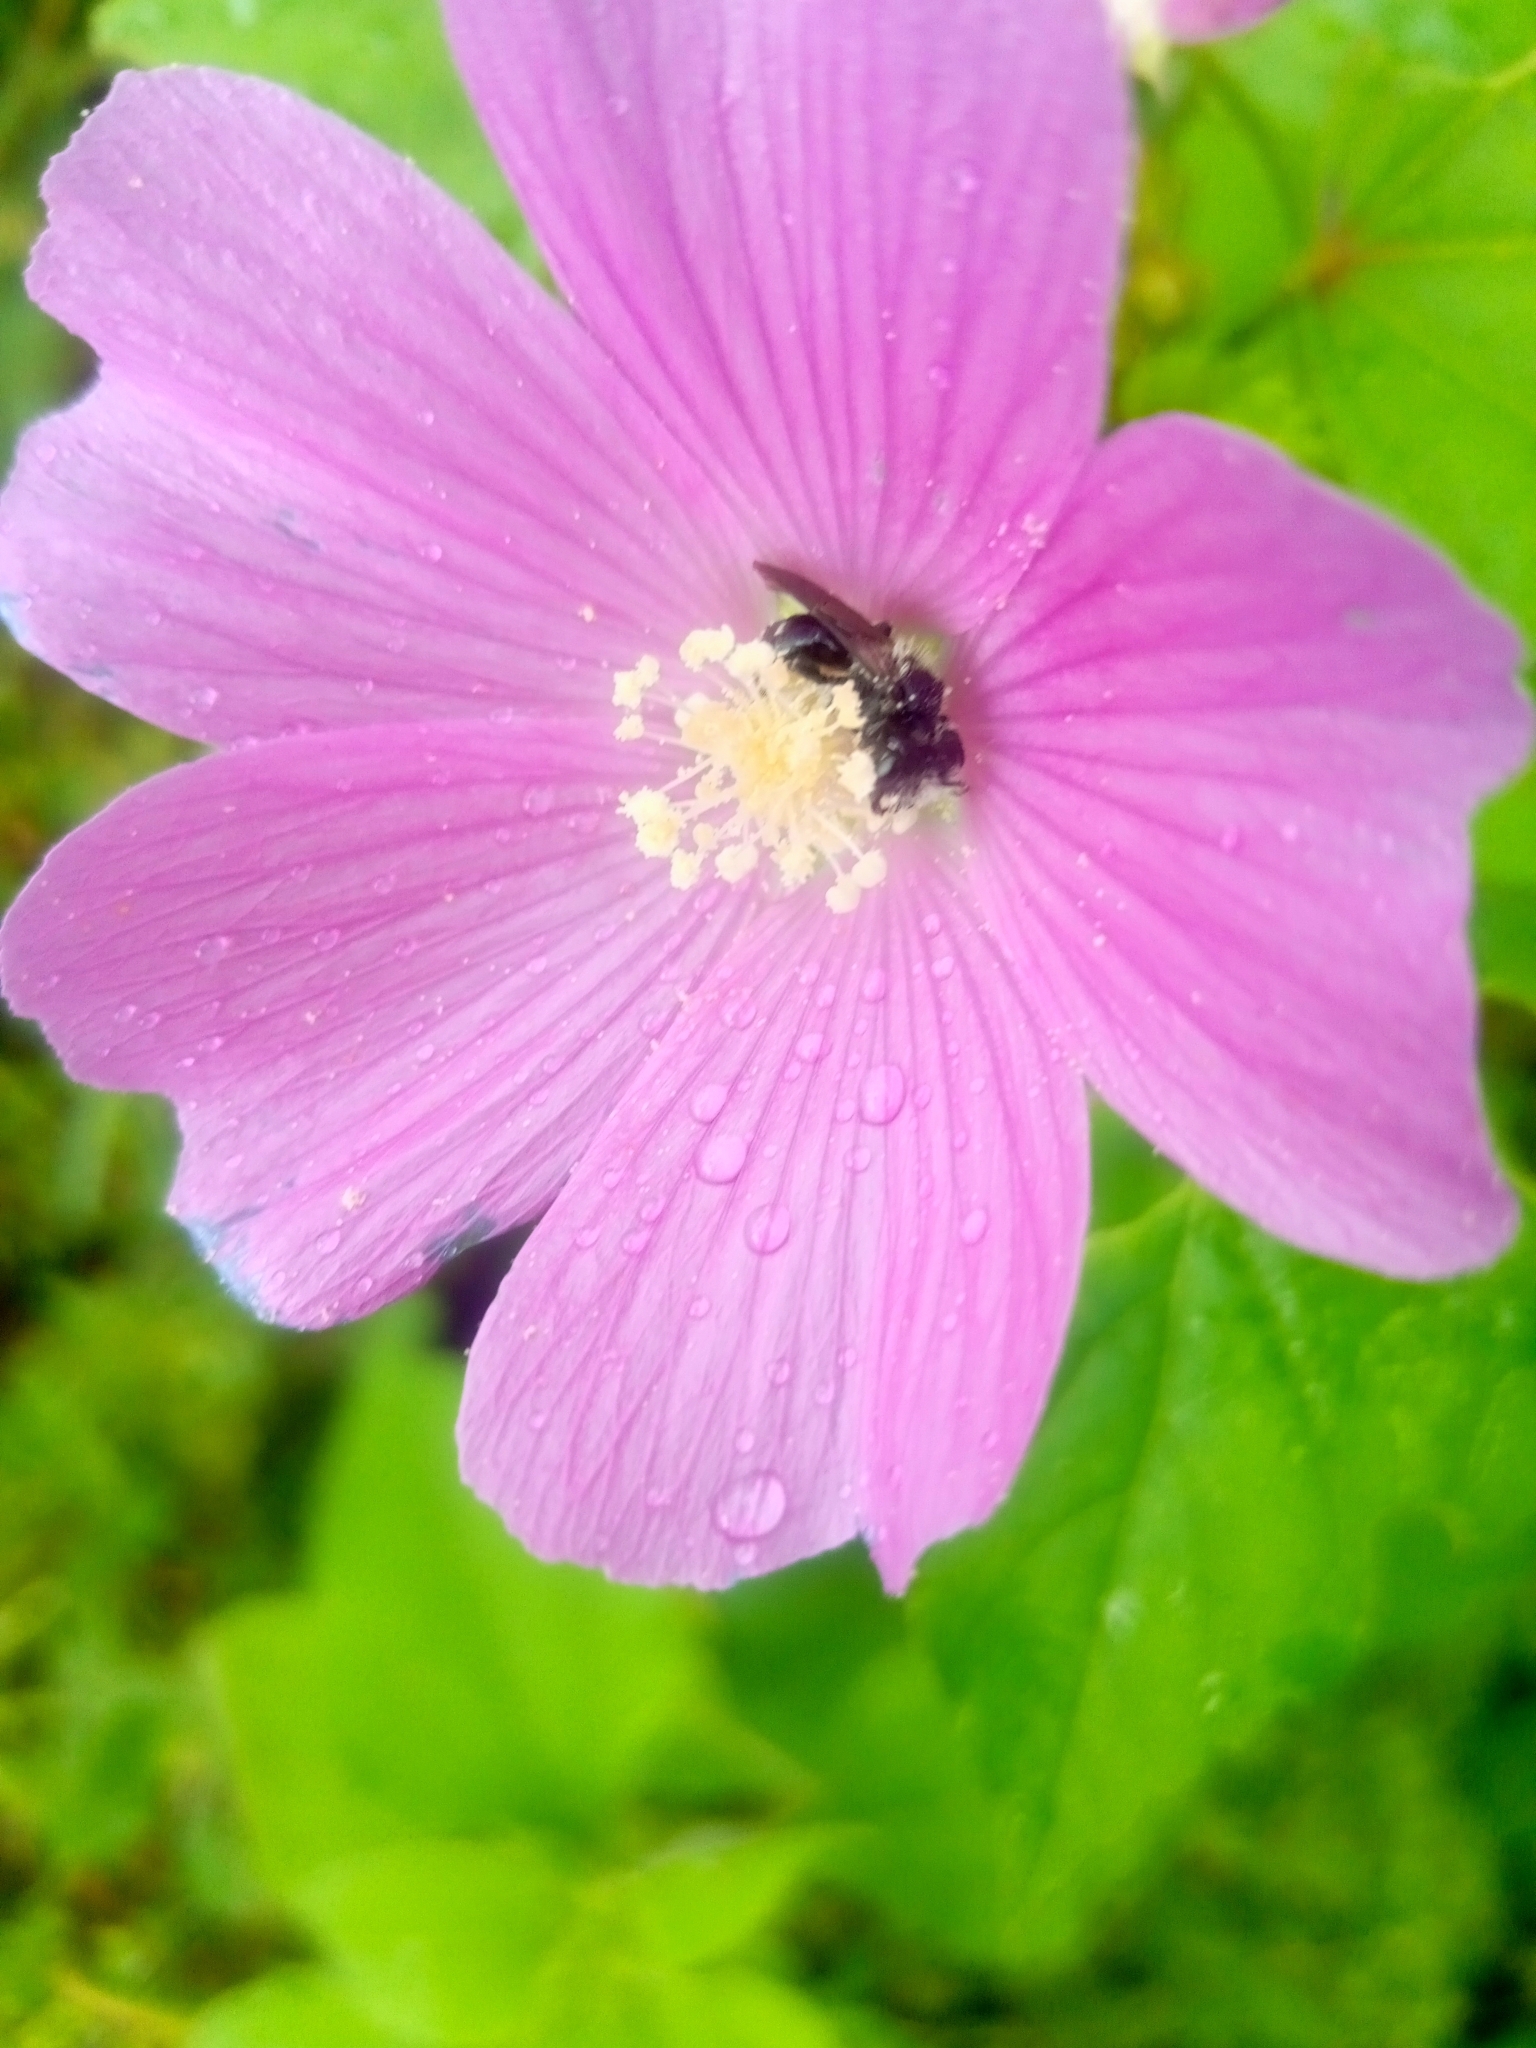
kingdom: Plantae
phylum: Tracheophyta
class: Magnoliopsida
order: Malvales
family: Malvaceae
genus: Anoda
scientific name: Anoda cristata
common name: Spurred anoda
